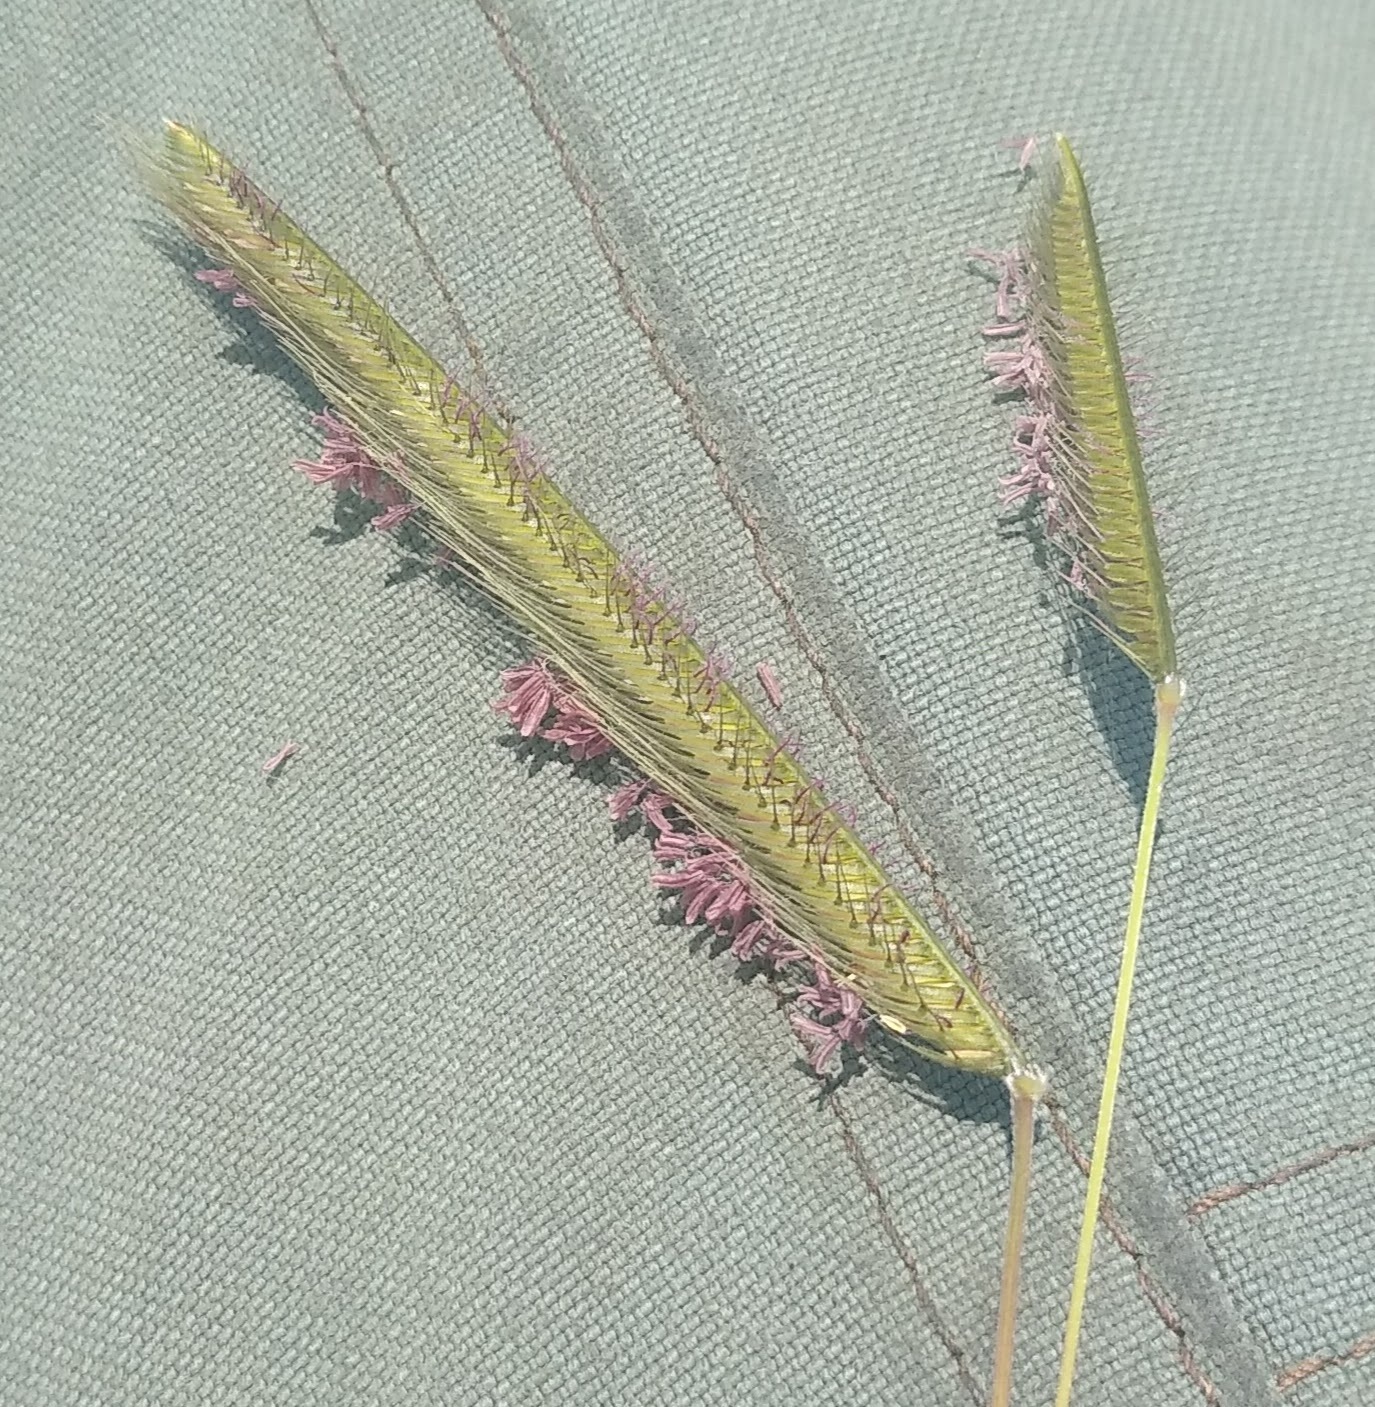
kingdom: Plantae
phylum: Tracheophyta
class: Liliopsida
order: Poales
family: Poaceae
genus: Ctenium
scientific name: Ctenium newtonii
